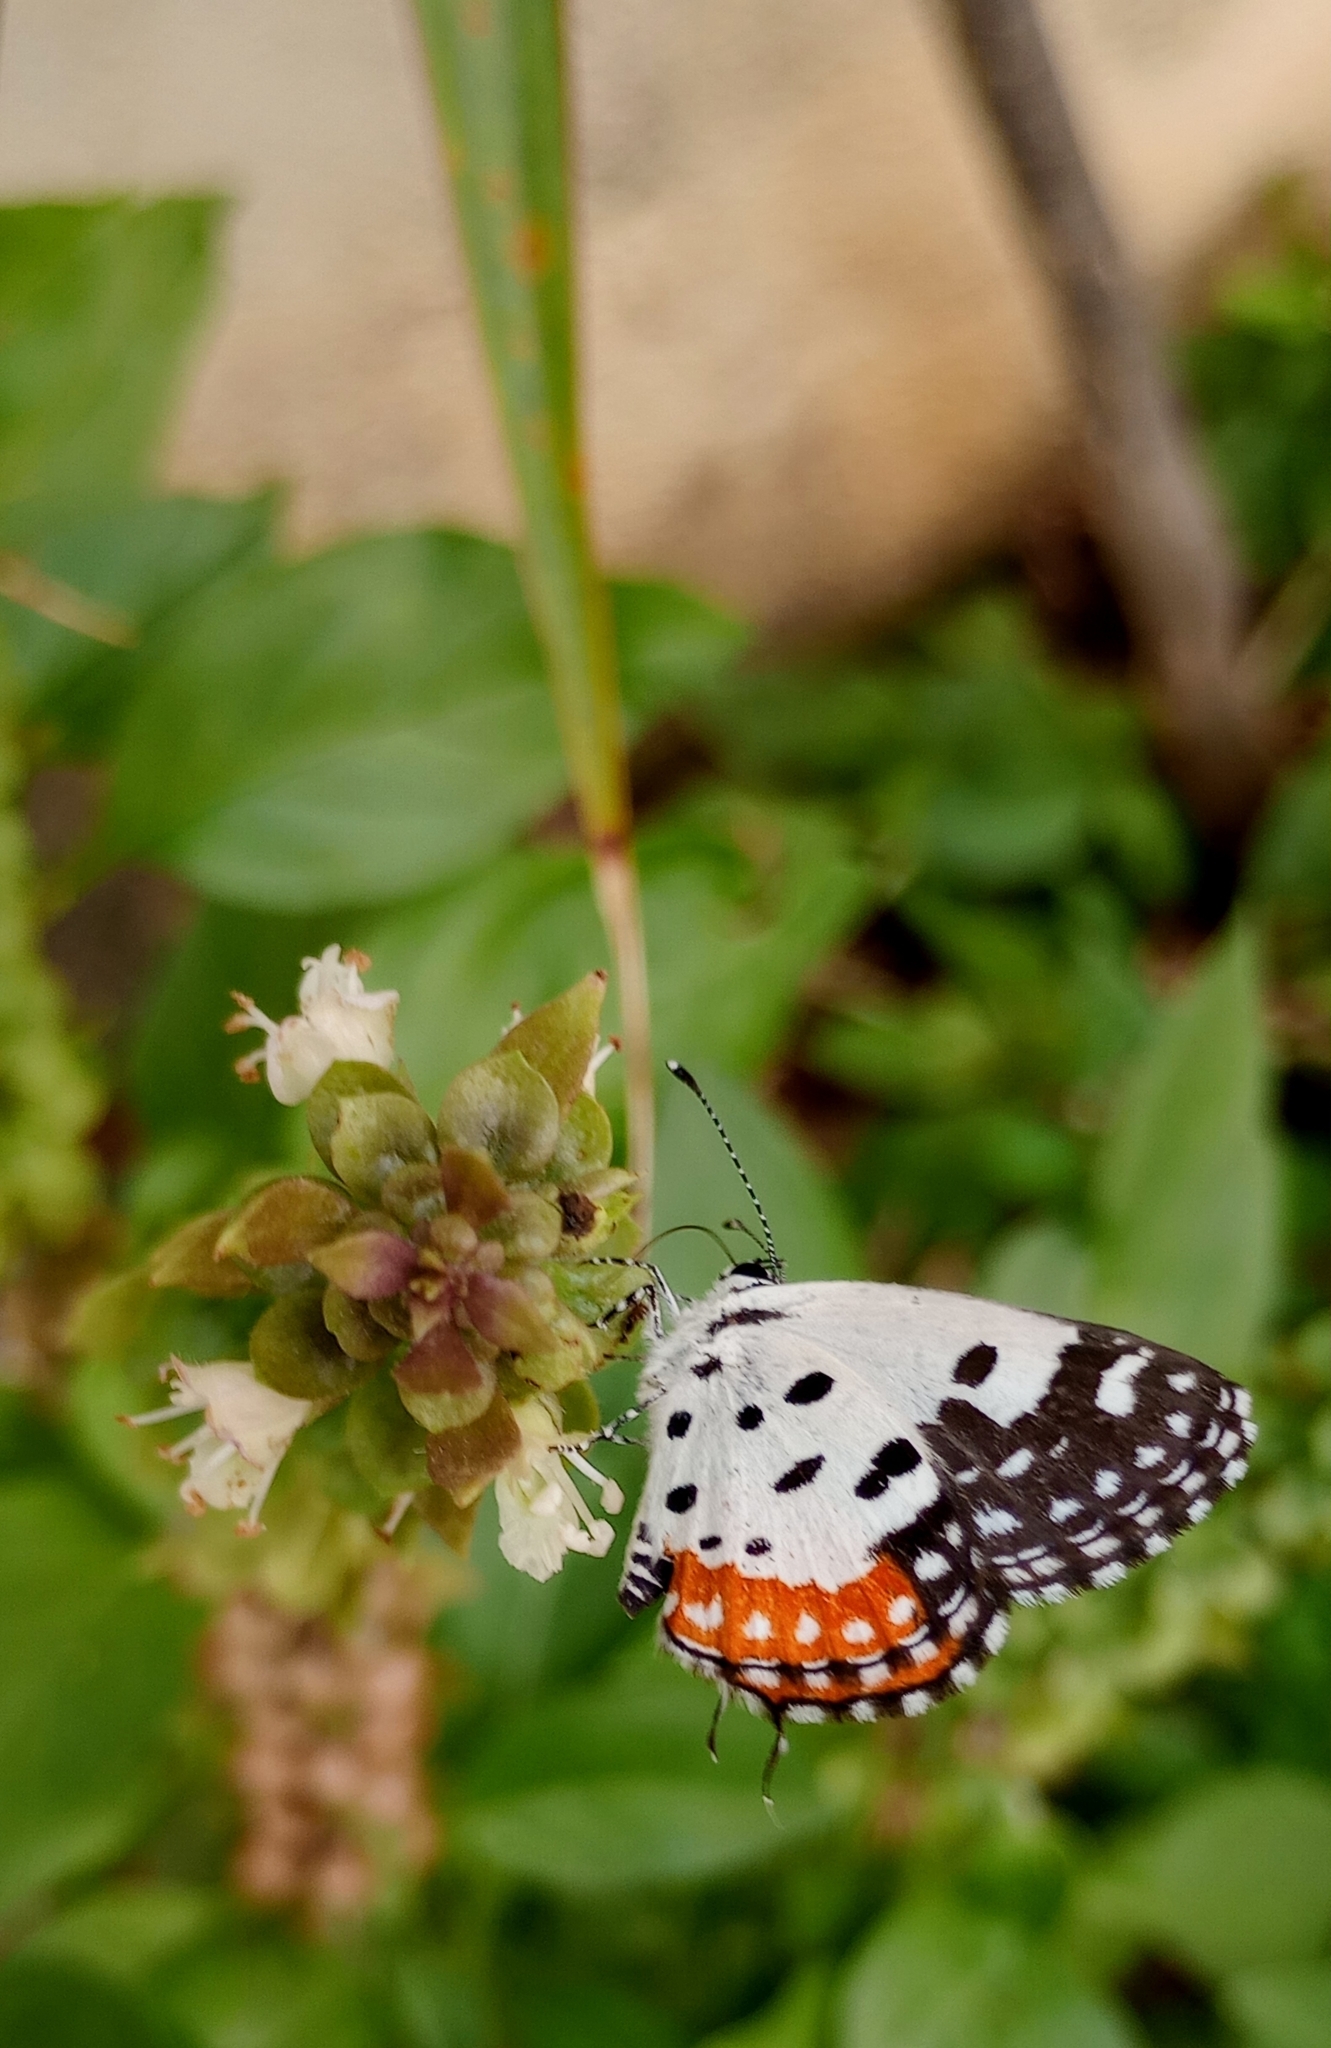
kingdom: Animalia
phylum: Arthropoda
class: Insecta
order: Lepidoptera
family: Lycaenidae
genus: Talicada
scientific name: Talicada nyseus
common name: Red pierrot
